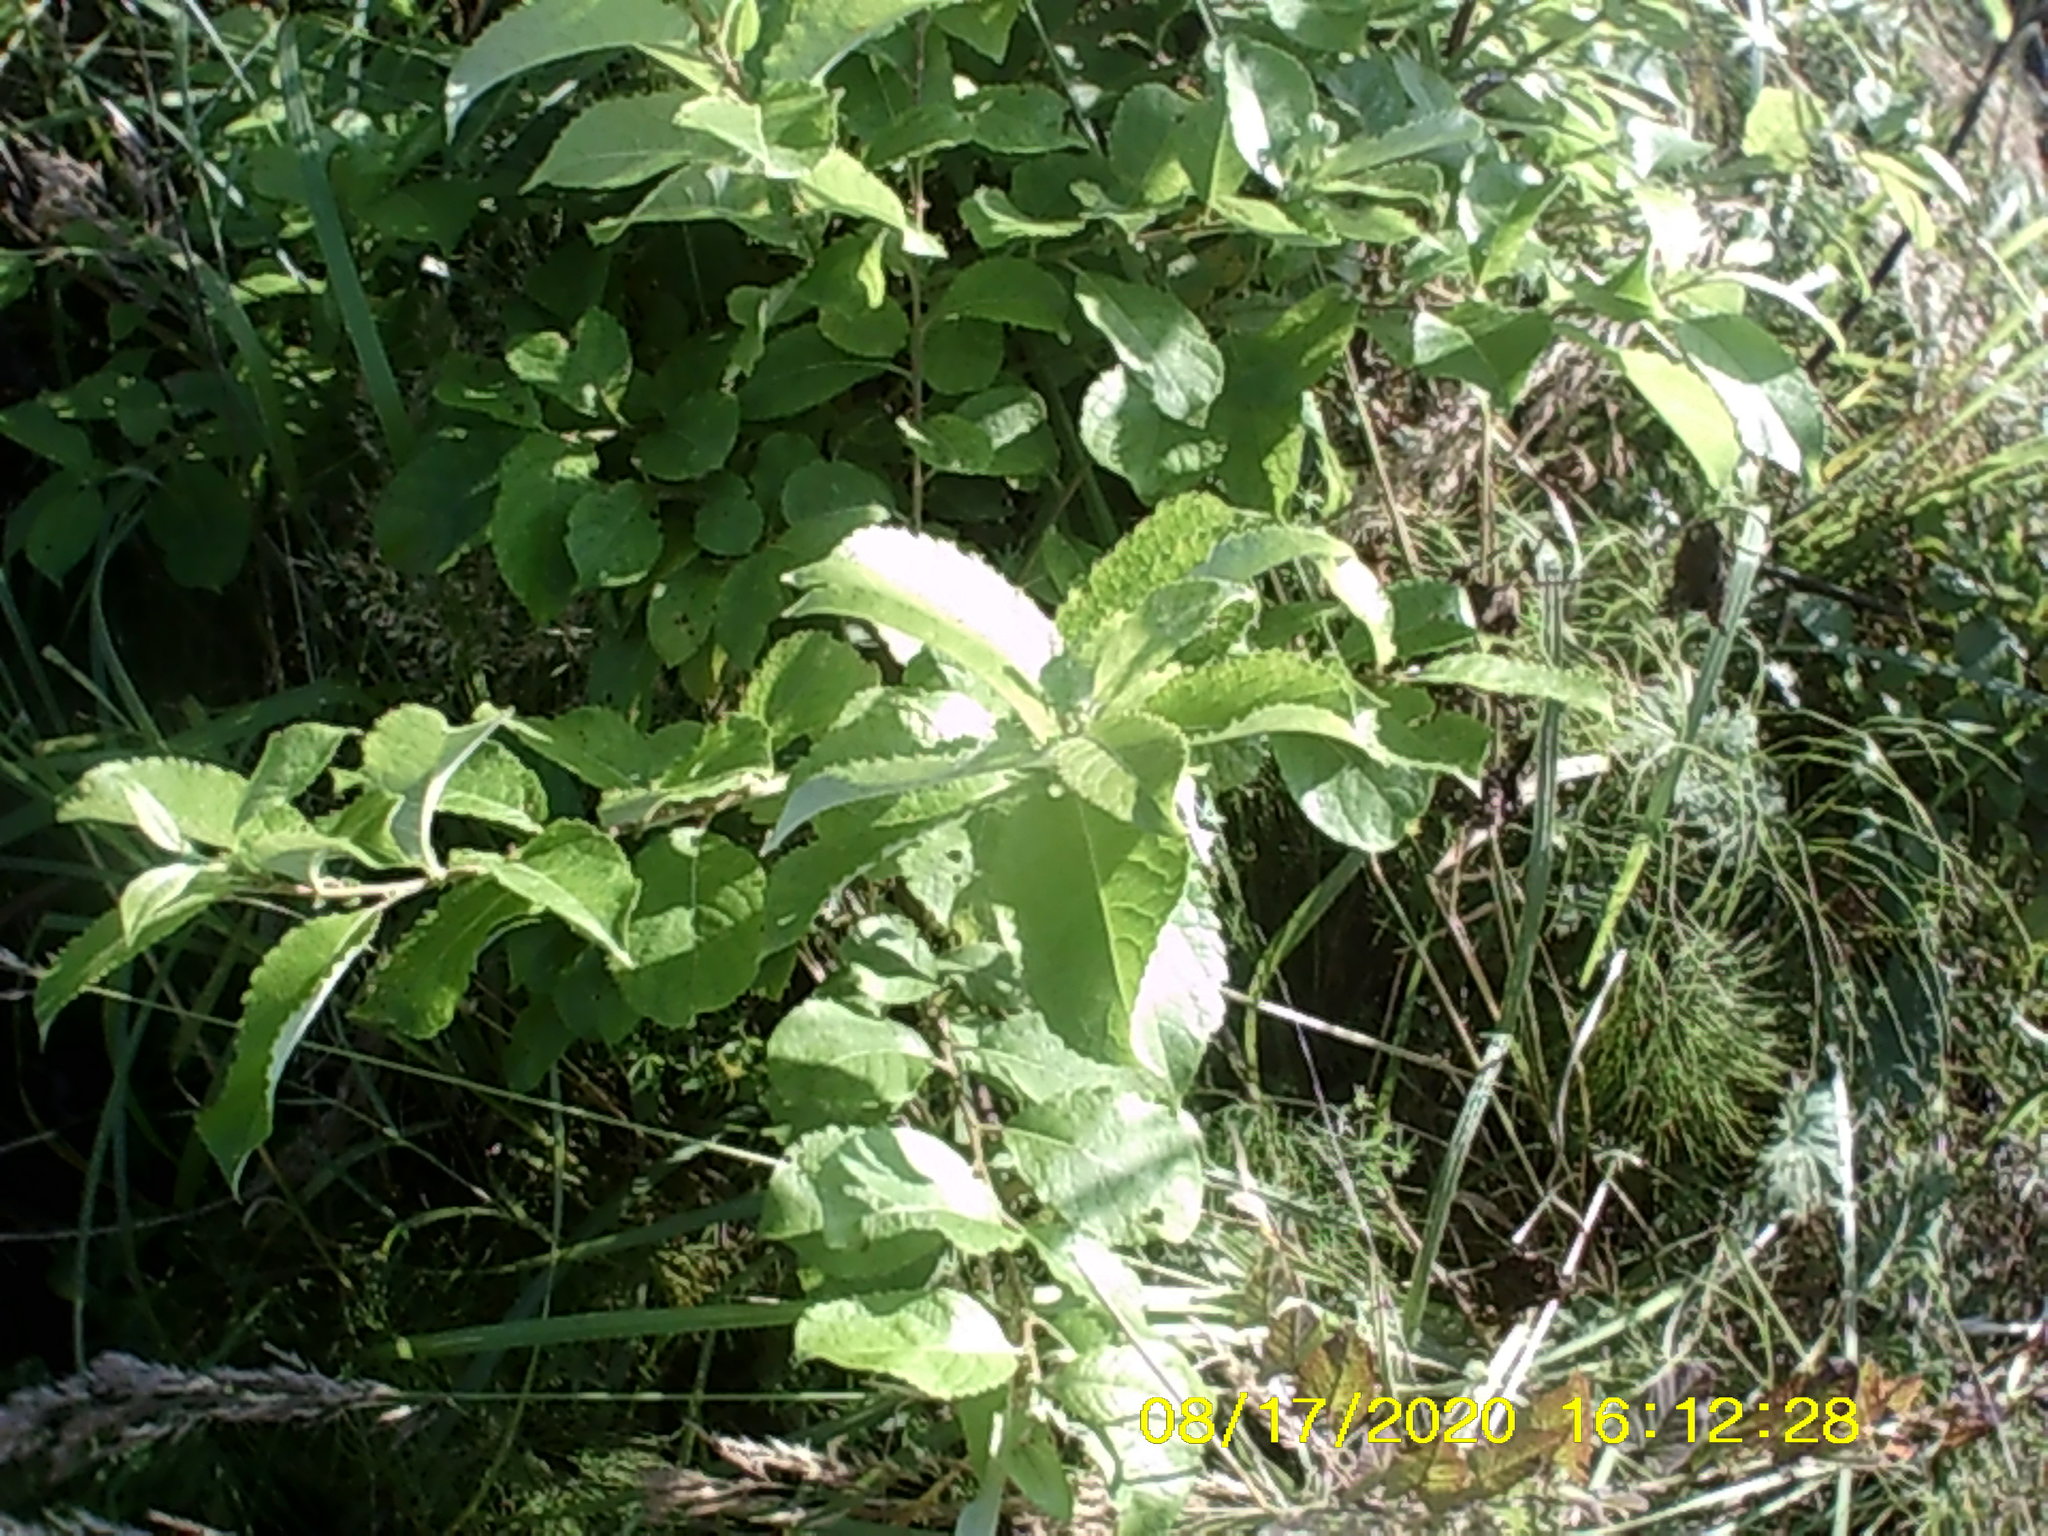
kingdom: Plantae
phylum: Tracheophyta
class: Magnoliopsida
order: Malpighiales
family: Salicaceae
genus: Salix
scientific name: Salix caprea
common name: Goat willow
